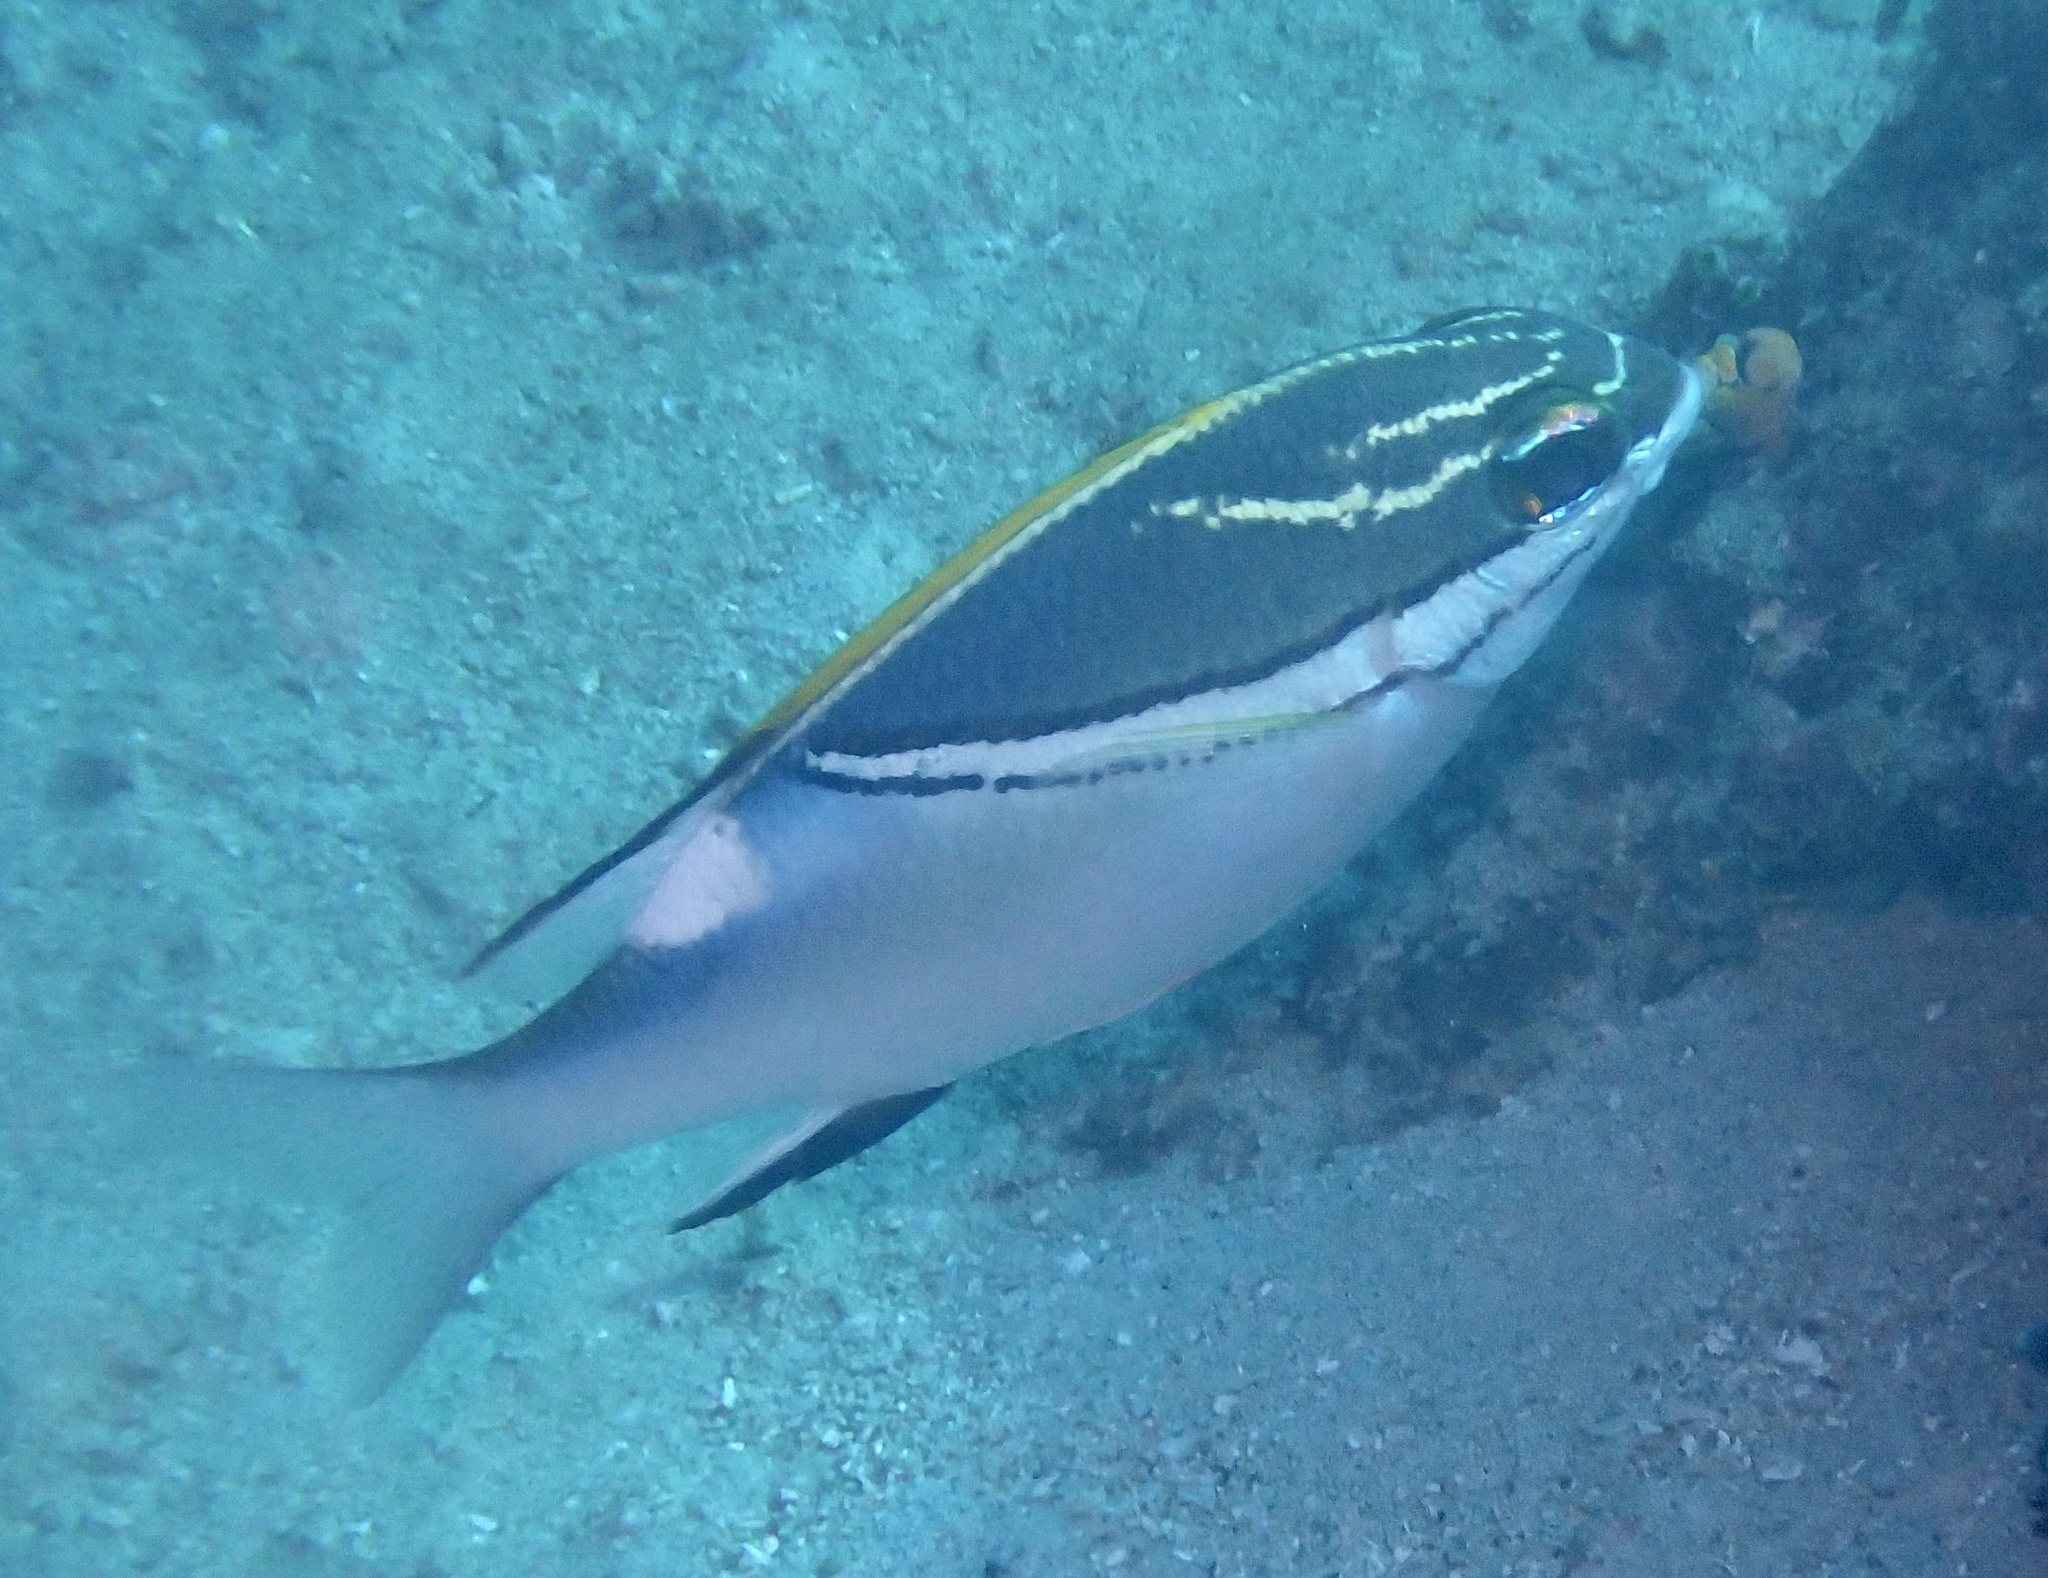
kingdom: Animalia
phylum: Chordata
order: Perciformes
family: Nemipteridae
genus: Scolopsis
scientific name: Scolopsis bilineata
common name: Two-lined monocle bream
